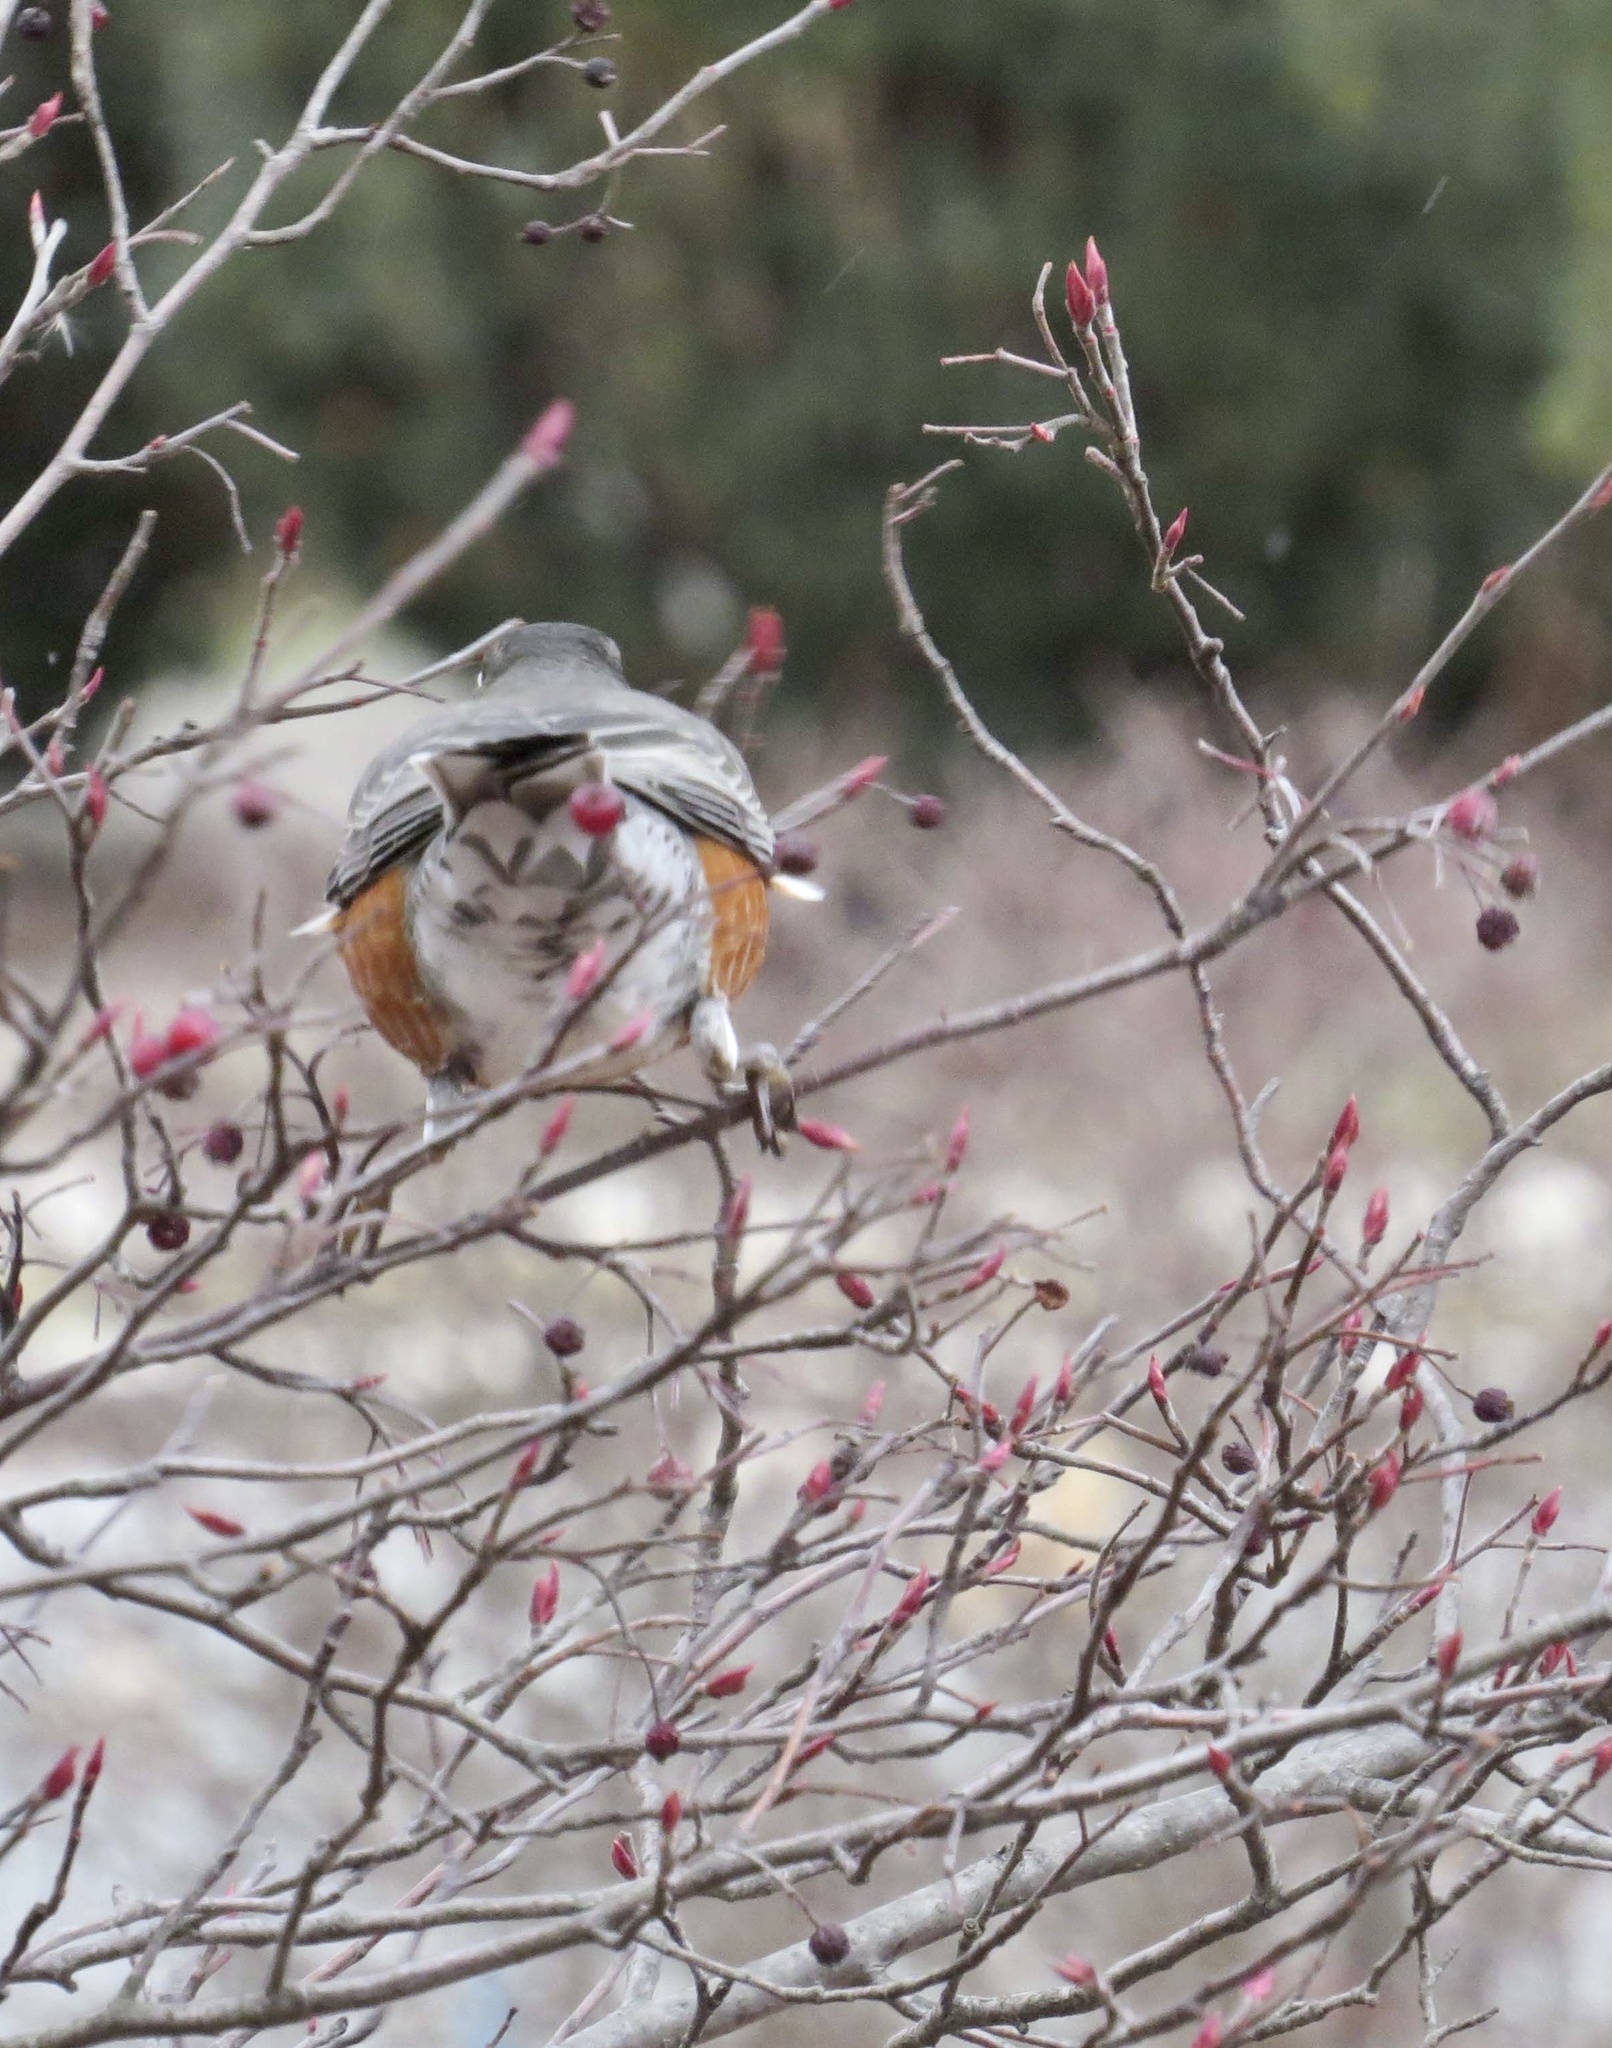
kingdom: Animalia
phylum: Chordata
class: Aves
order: Passeriformes
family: Turdidae
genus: Turdus
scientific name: Turdus migratorius
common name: American robin
